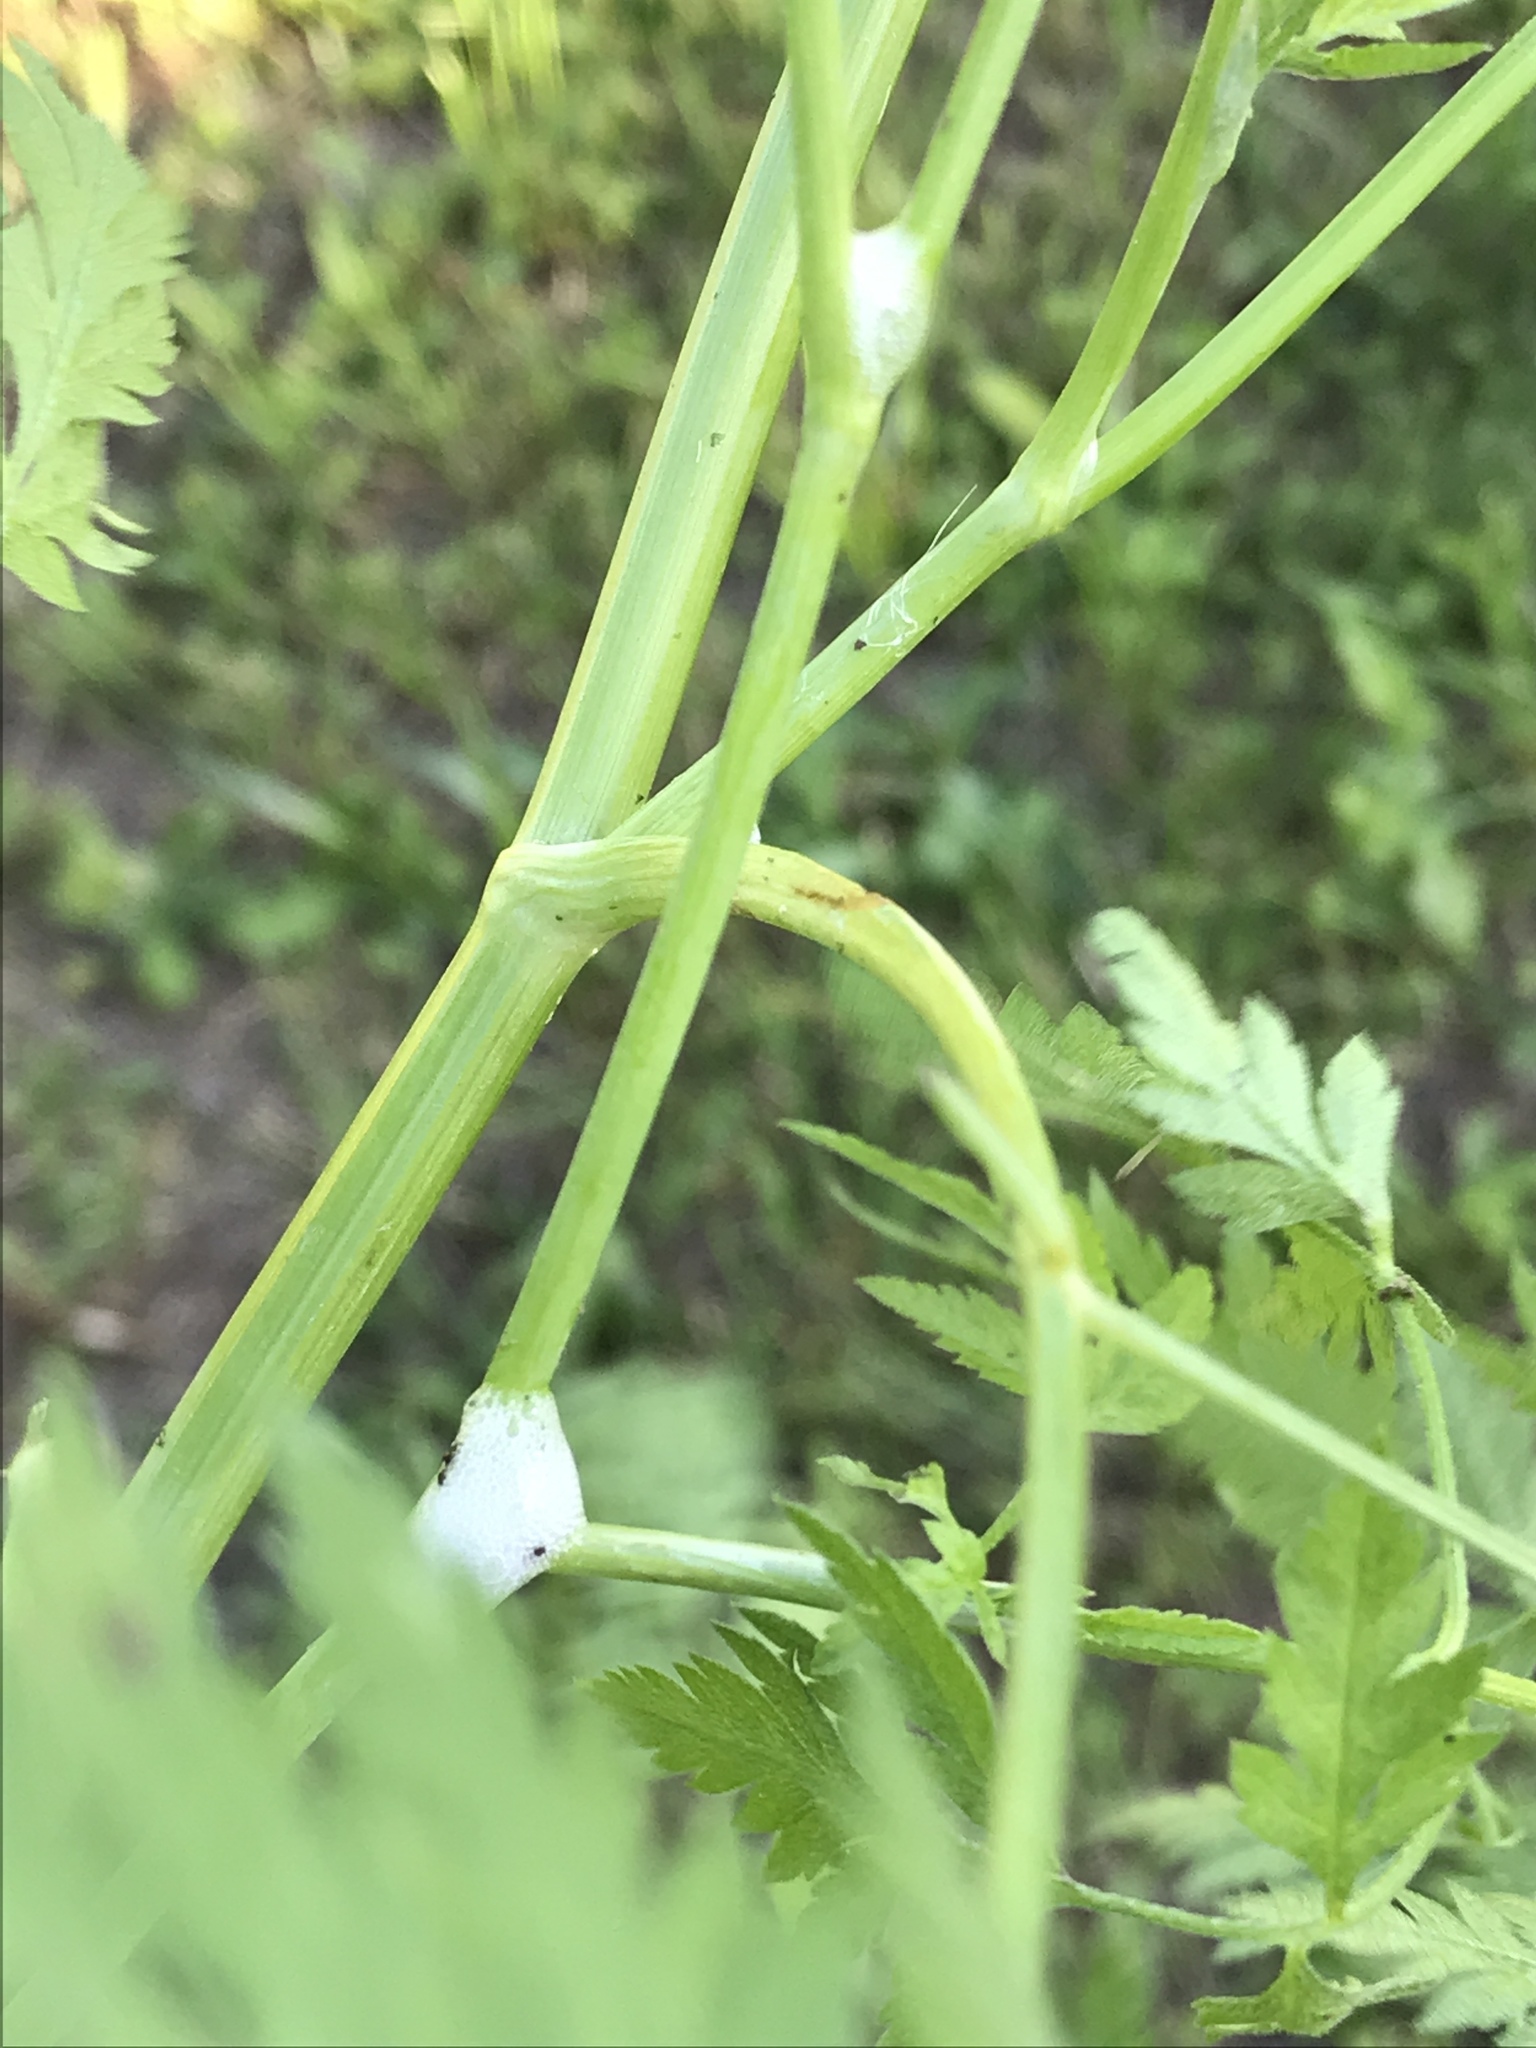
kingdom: Animalia
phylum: Arthropoda
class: Insecta
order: Hemiptera
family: Aphrophoridae
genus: Lepyronia
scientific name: Lepyronia quadrangularis
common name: Diamond-backed spittlebug
